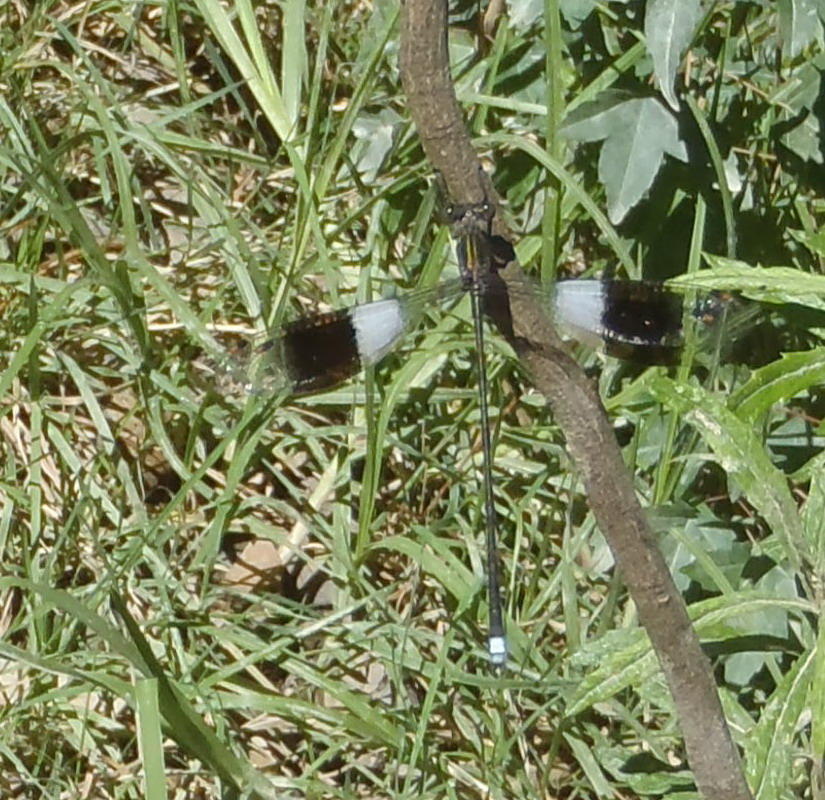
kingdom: Animalia
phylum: Arthropoda
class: Insecta
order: Odonata
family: Synlestidae
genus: Chlorolestes
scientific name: Chlorolestes tessellatus
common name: Forest malachite
